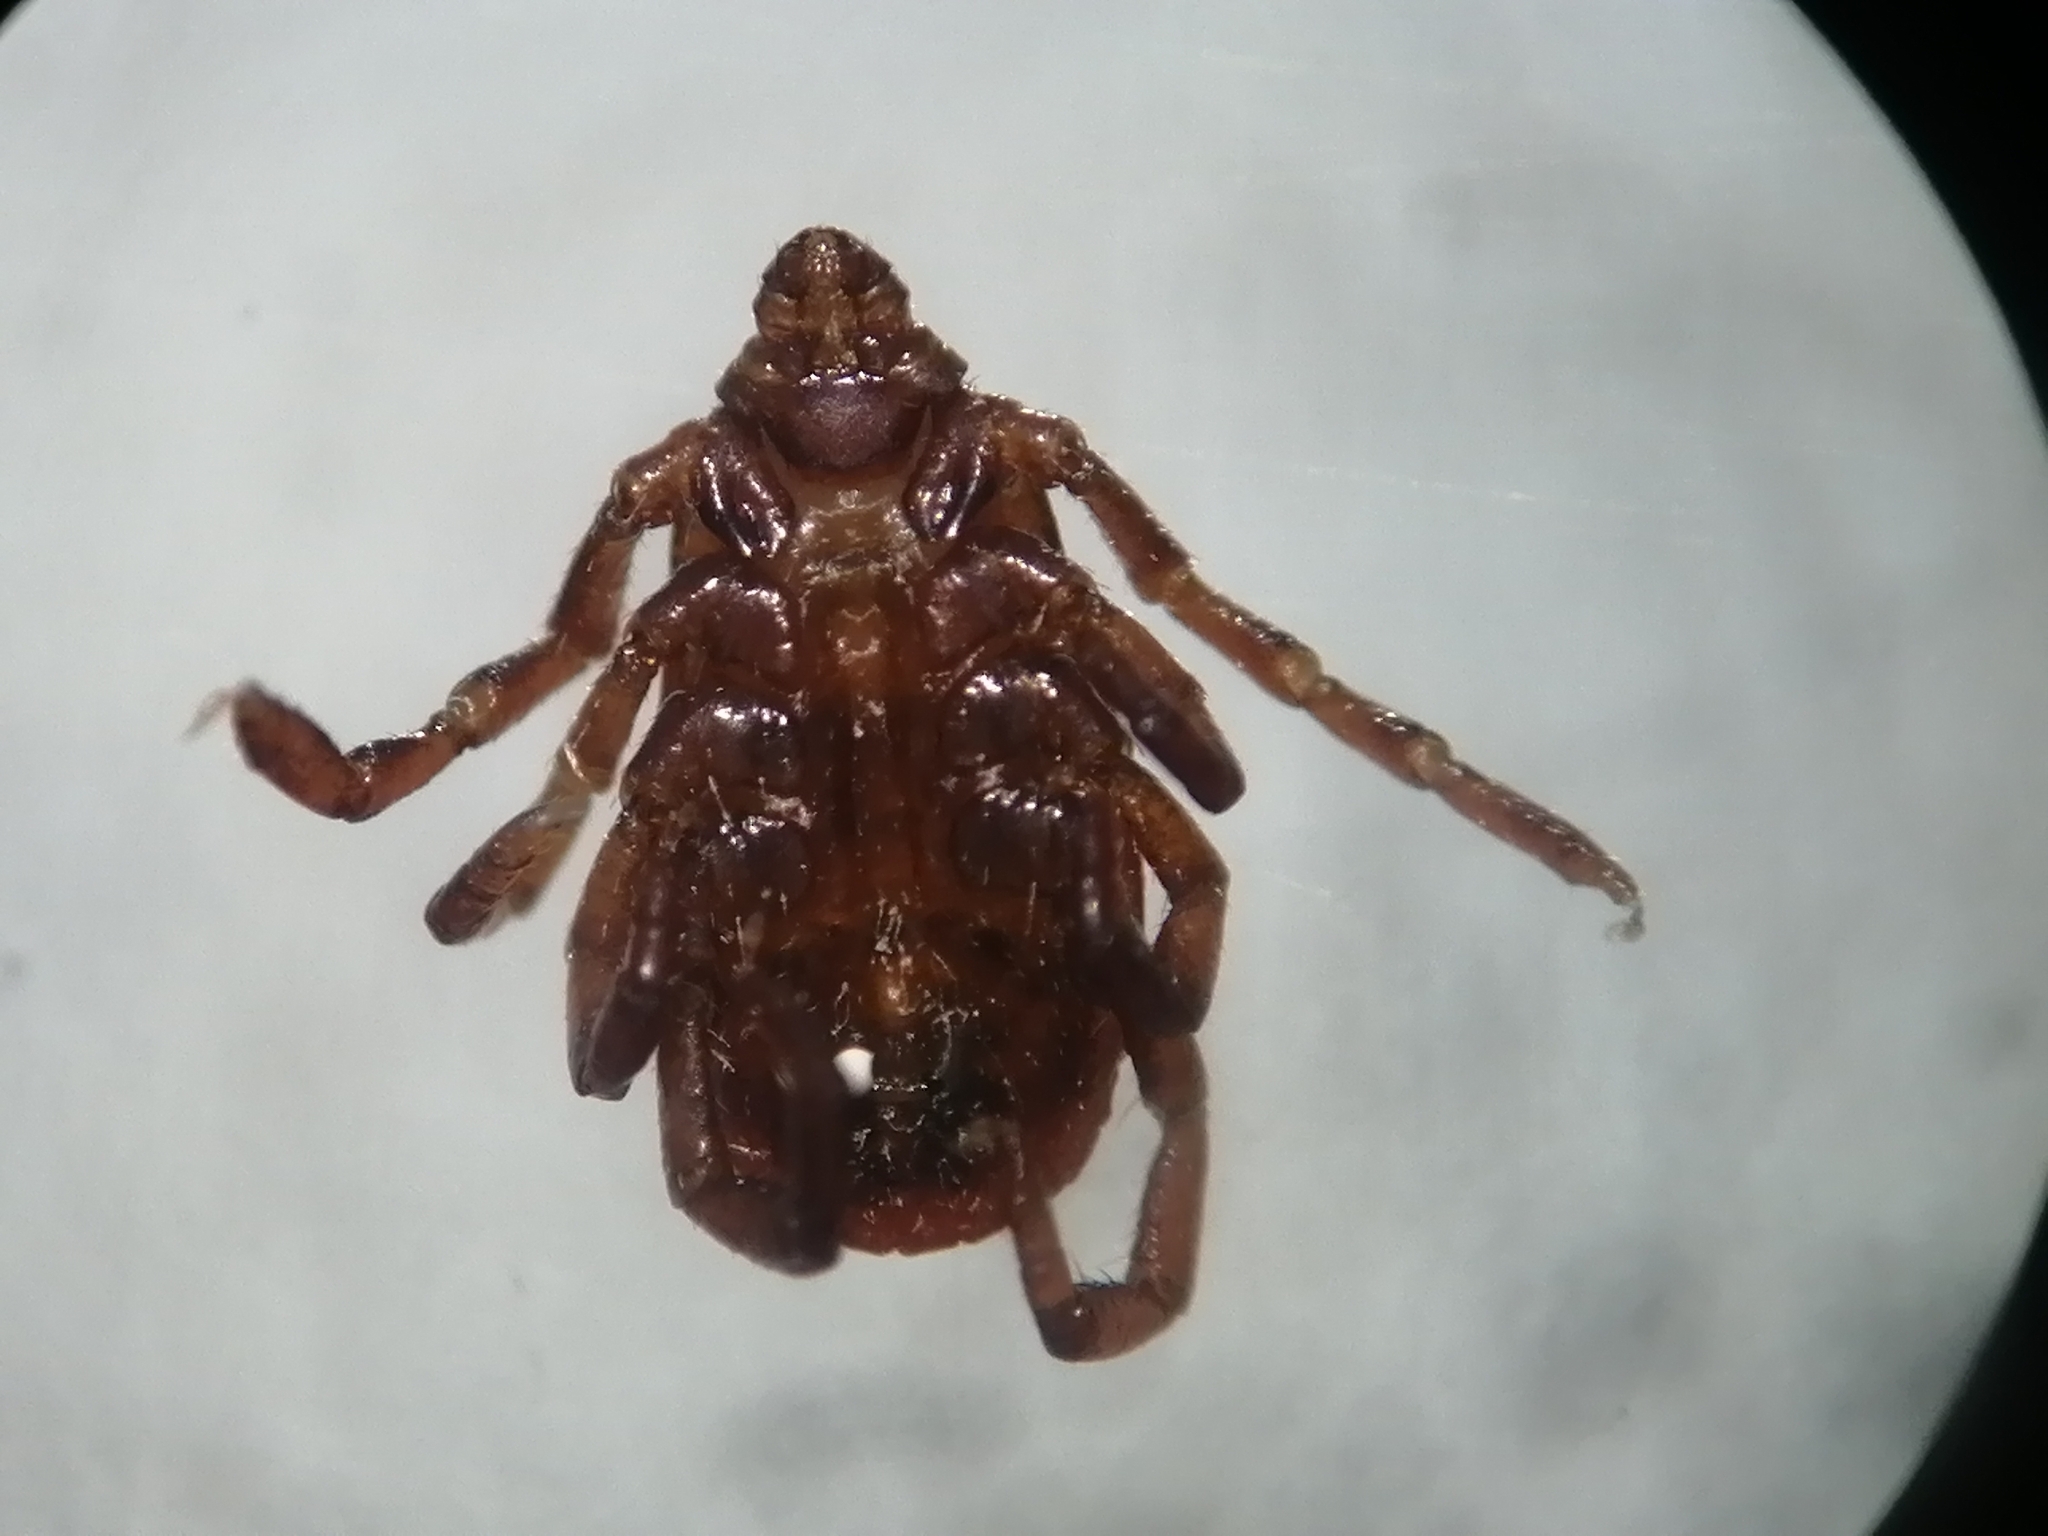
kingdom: Animalia
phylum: Arthropoda
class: Arachnida
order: Ixodida
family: Ixodidae
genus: Rhipicephalus
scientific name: Rhipicephalus sanguineus
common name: Brown dog tick
